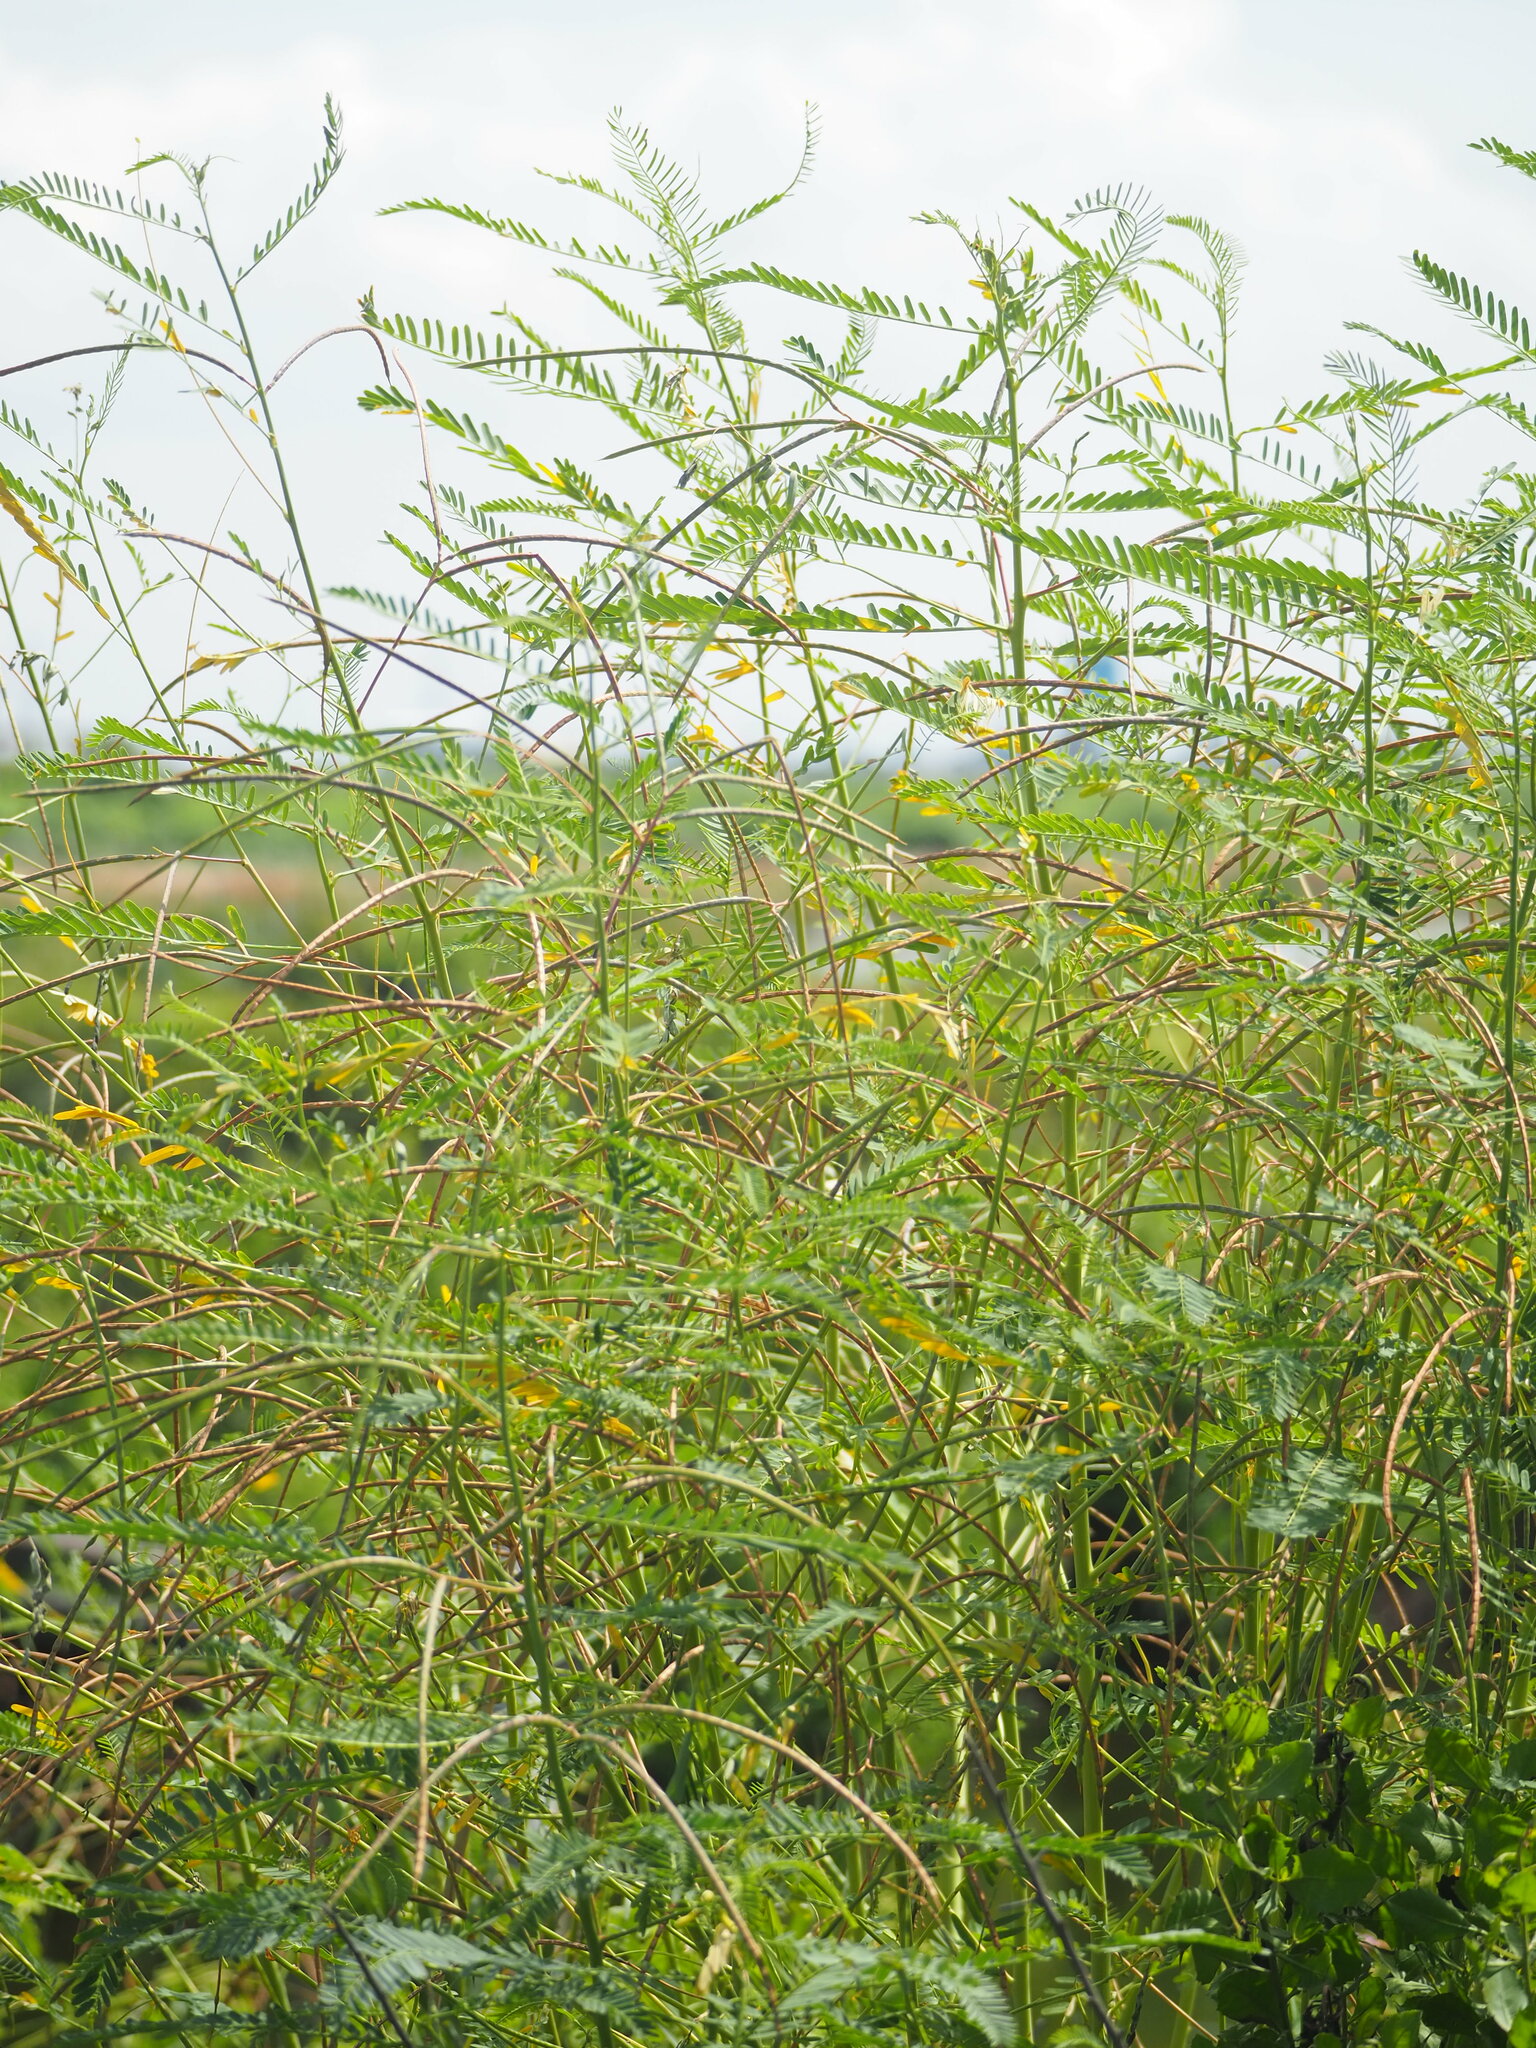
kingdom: Plantae
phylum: Tracheophyta
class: Magnoliopsida
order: Fabales
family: Fabaceae
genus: Sesbania
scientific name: Sesbania cannabina
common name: Canicha
